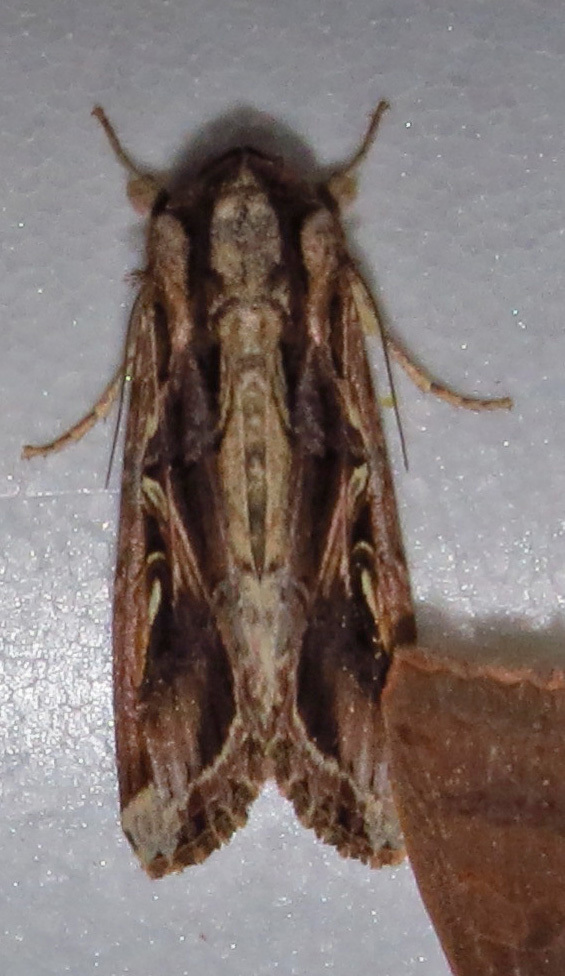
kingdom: Animalia
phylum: Arthropoda
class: Insecta
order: Lepidoptera
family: Noctuidae
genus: Spodoptera
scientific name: Spodoptera dolichos
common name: Sweetpotato armyworm
